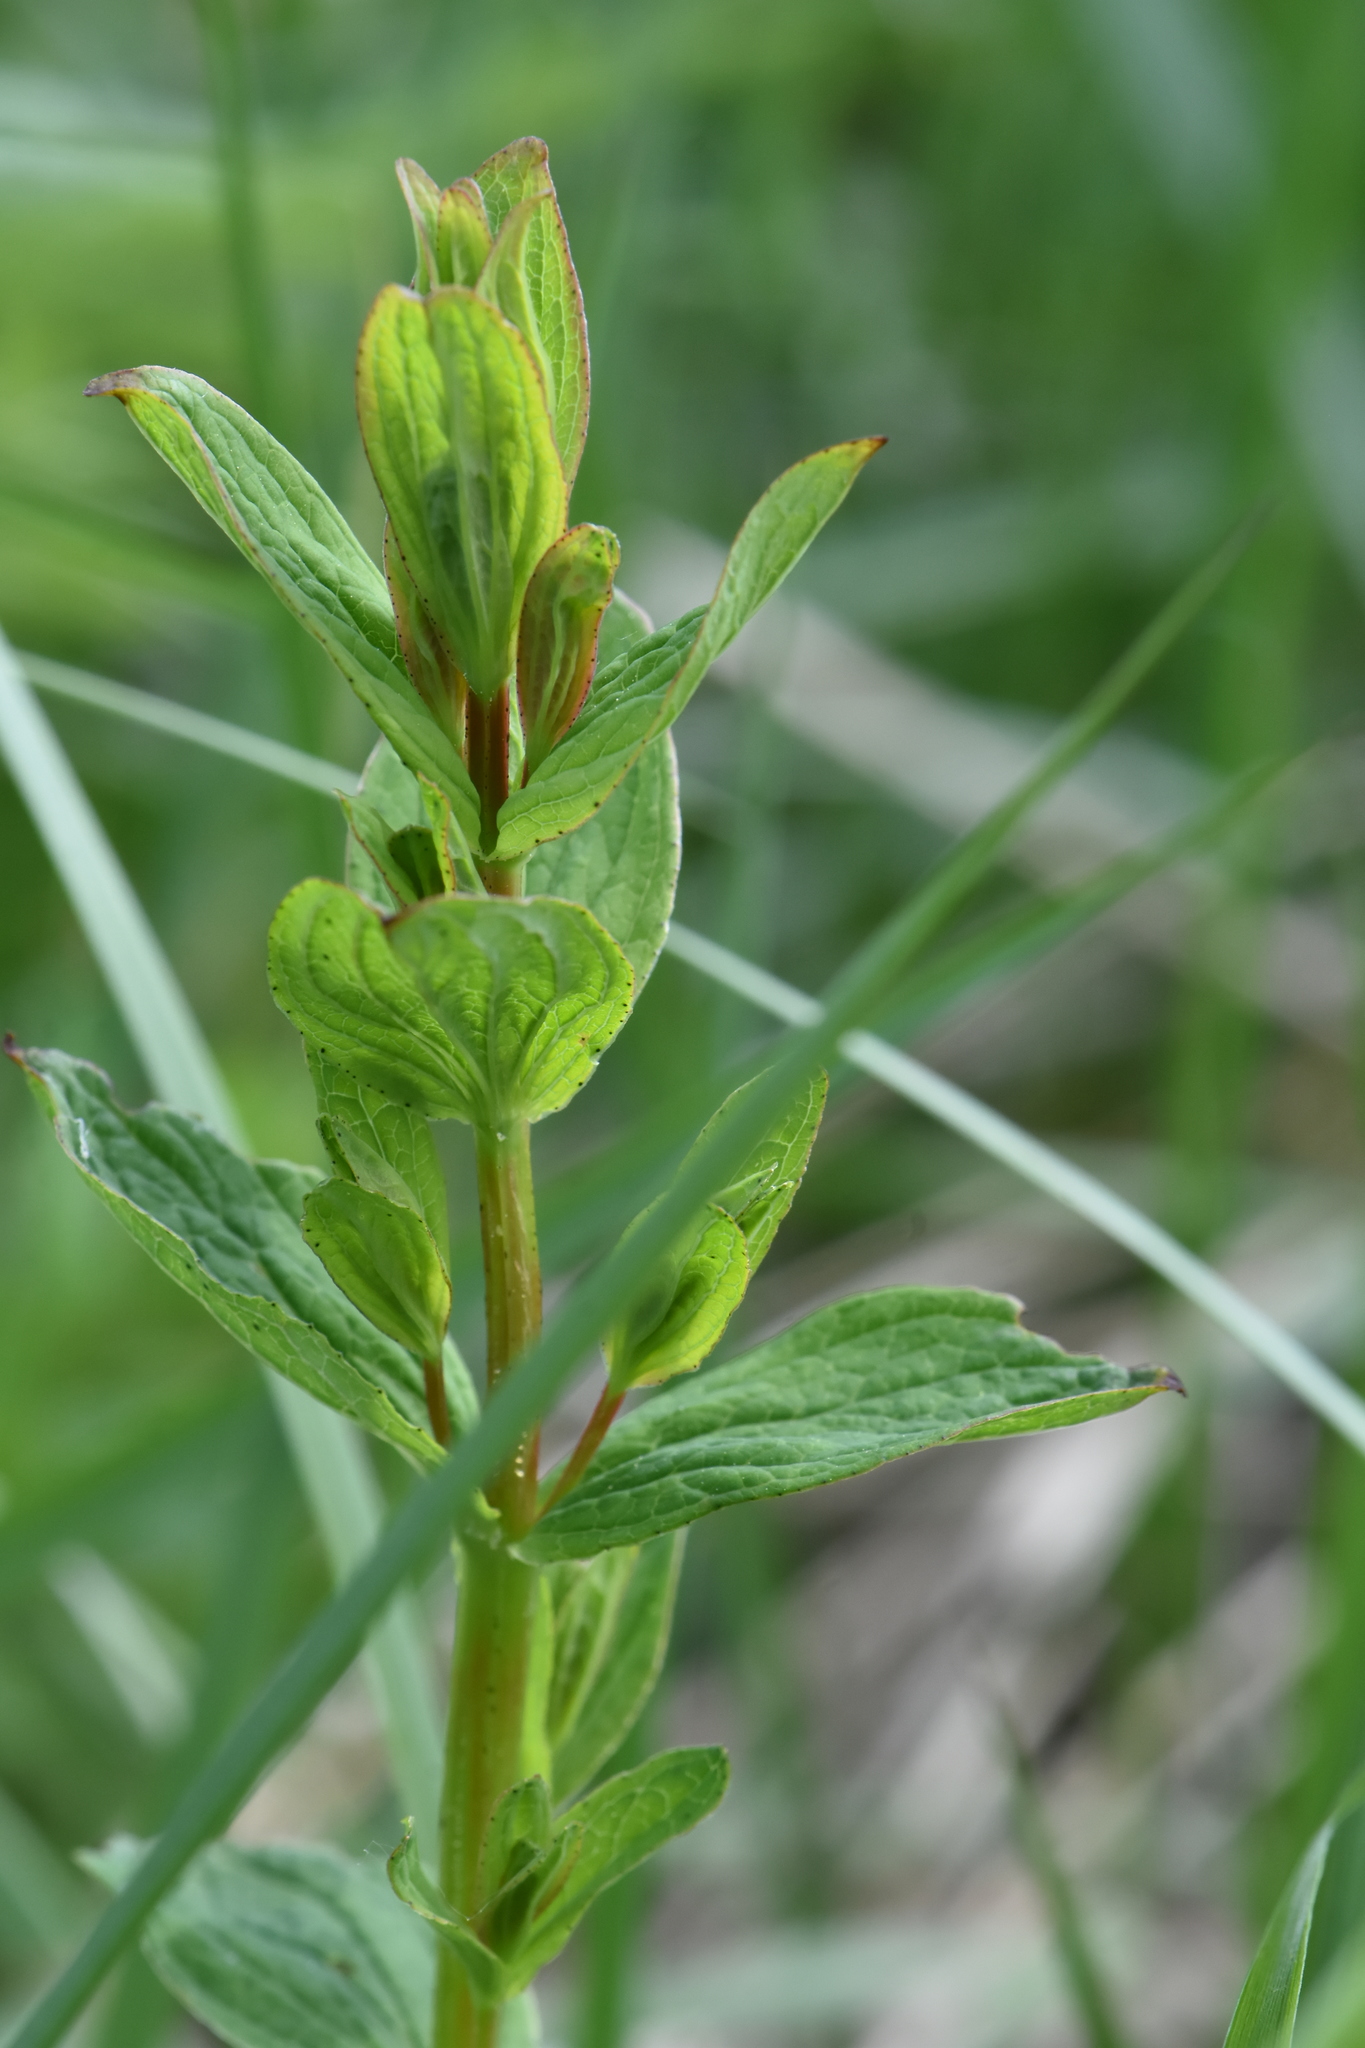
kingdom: Plantae
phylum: Tracheophyta
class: Magnoliopsida
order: Malpighiales
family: Hypericaceae
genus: Hypericum
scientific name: Hypericum maculatum
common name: Imperforate st. john's-wort
